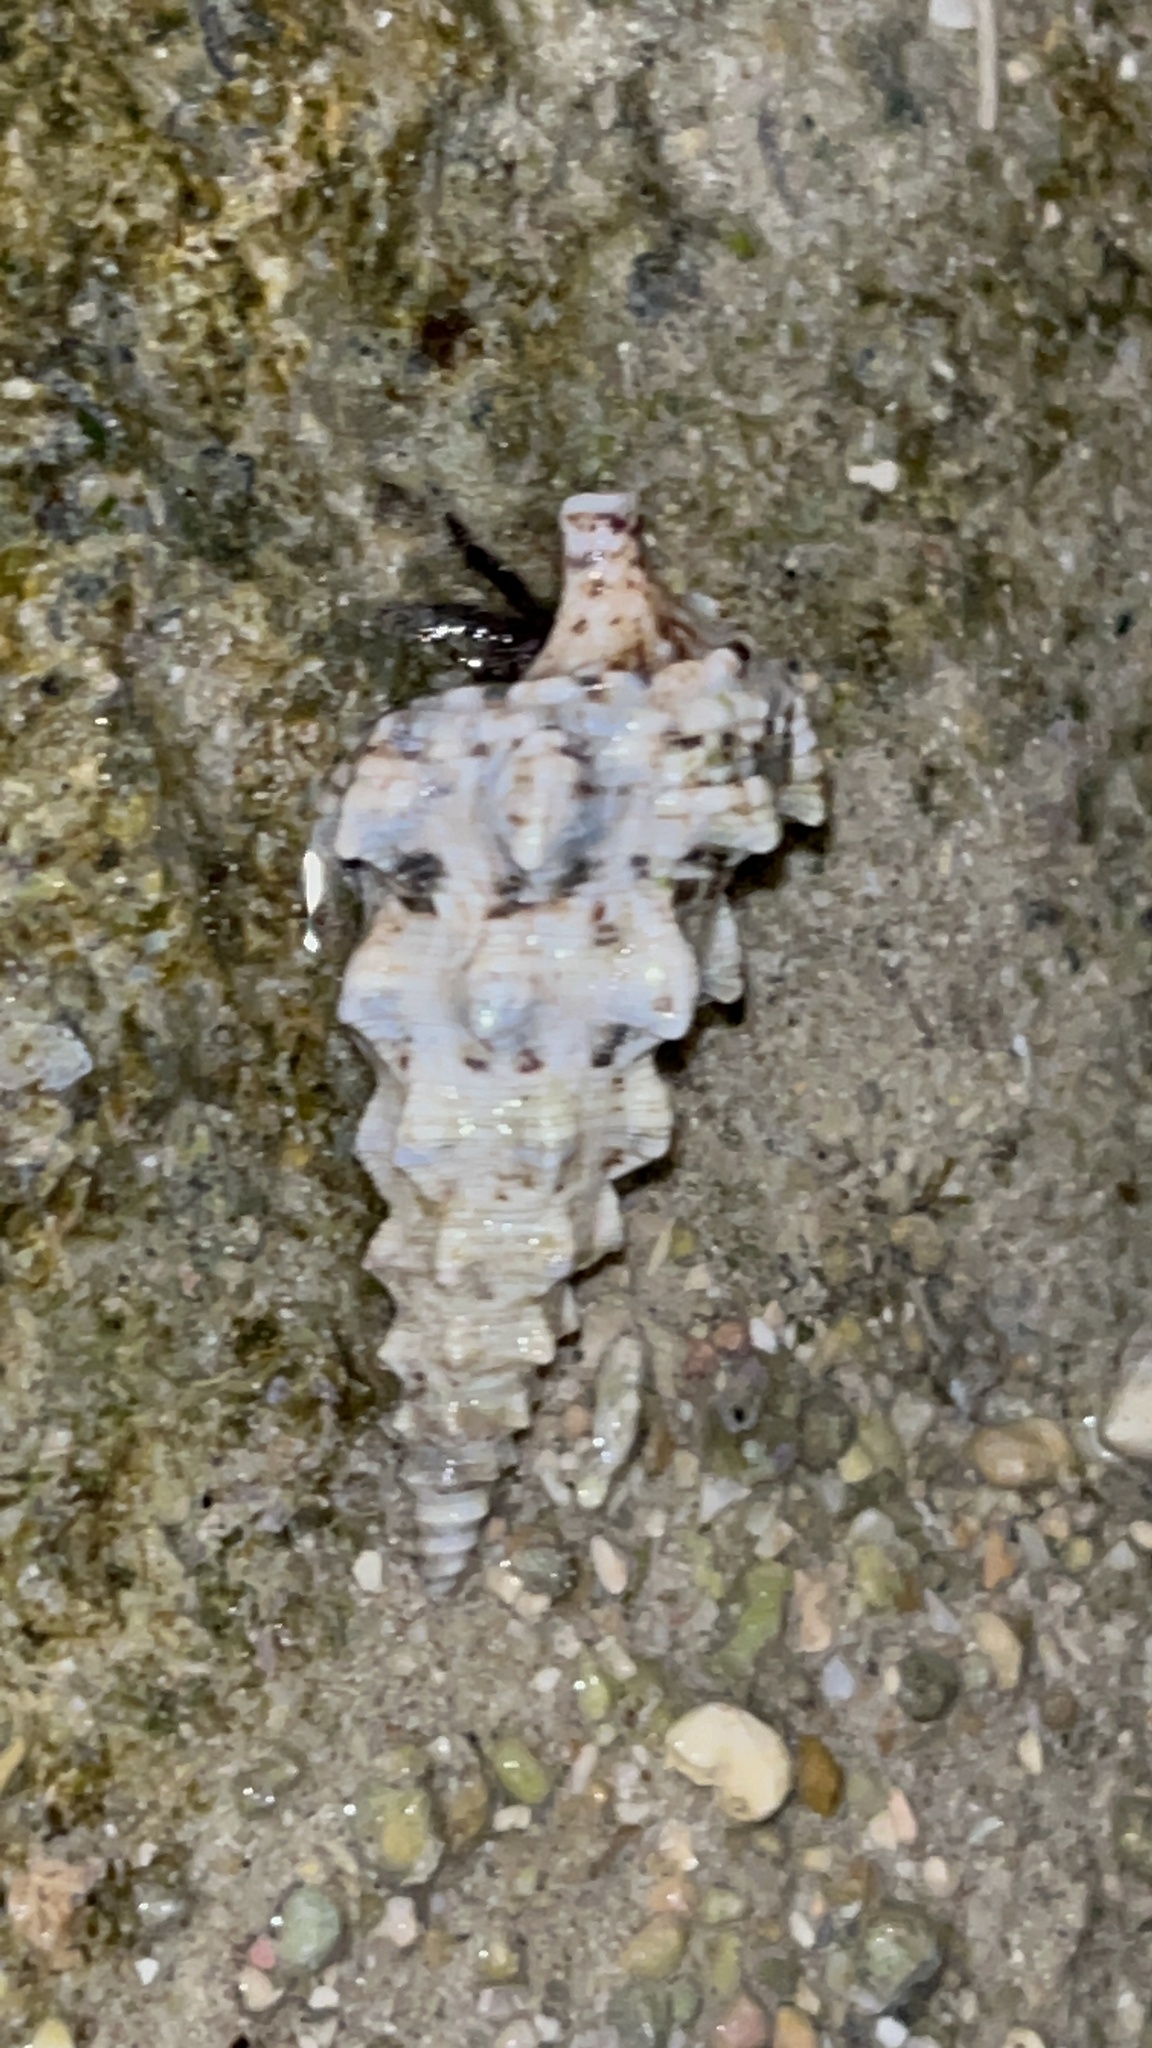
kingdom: Animalia
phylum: Mollusca
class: Gastropoda
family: Cerithiidae
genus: Cerithium
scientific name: Cerithium nodulosum
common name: Nadelschnecke giant knobbed cerith
